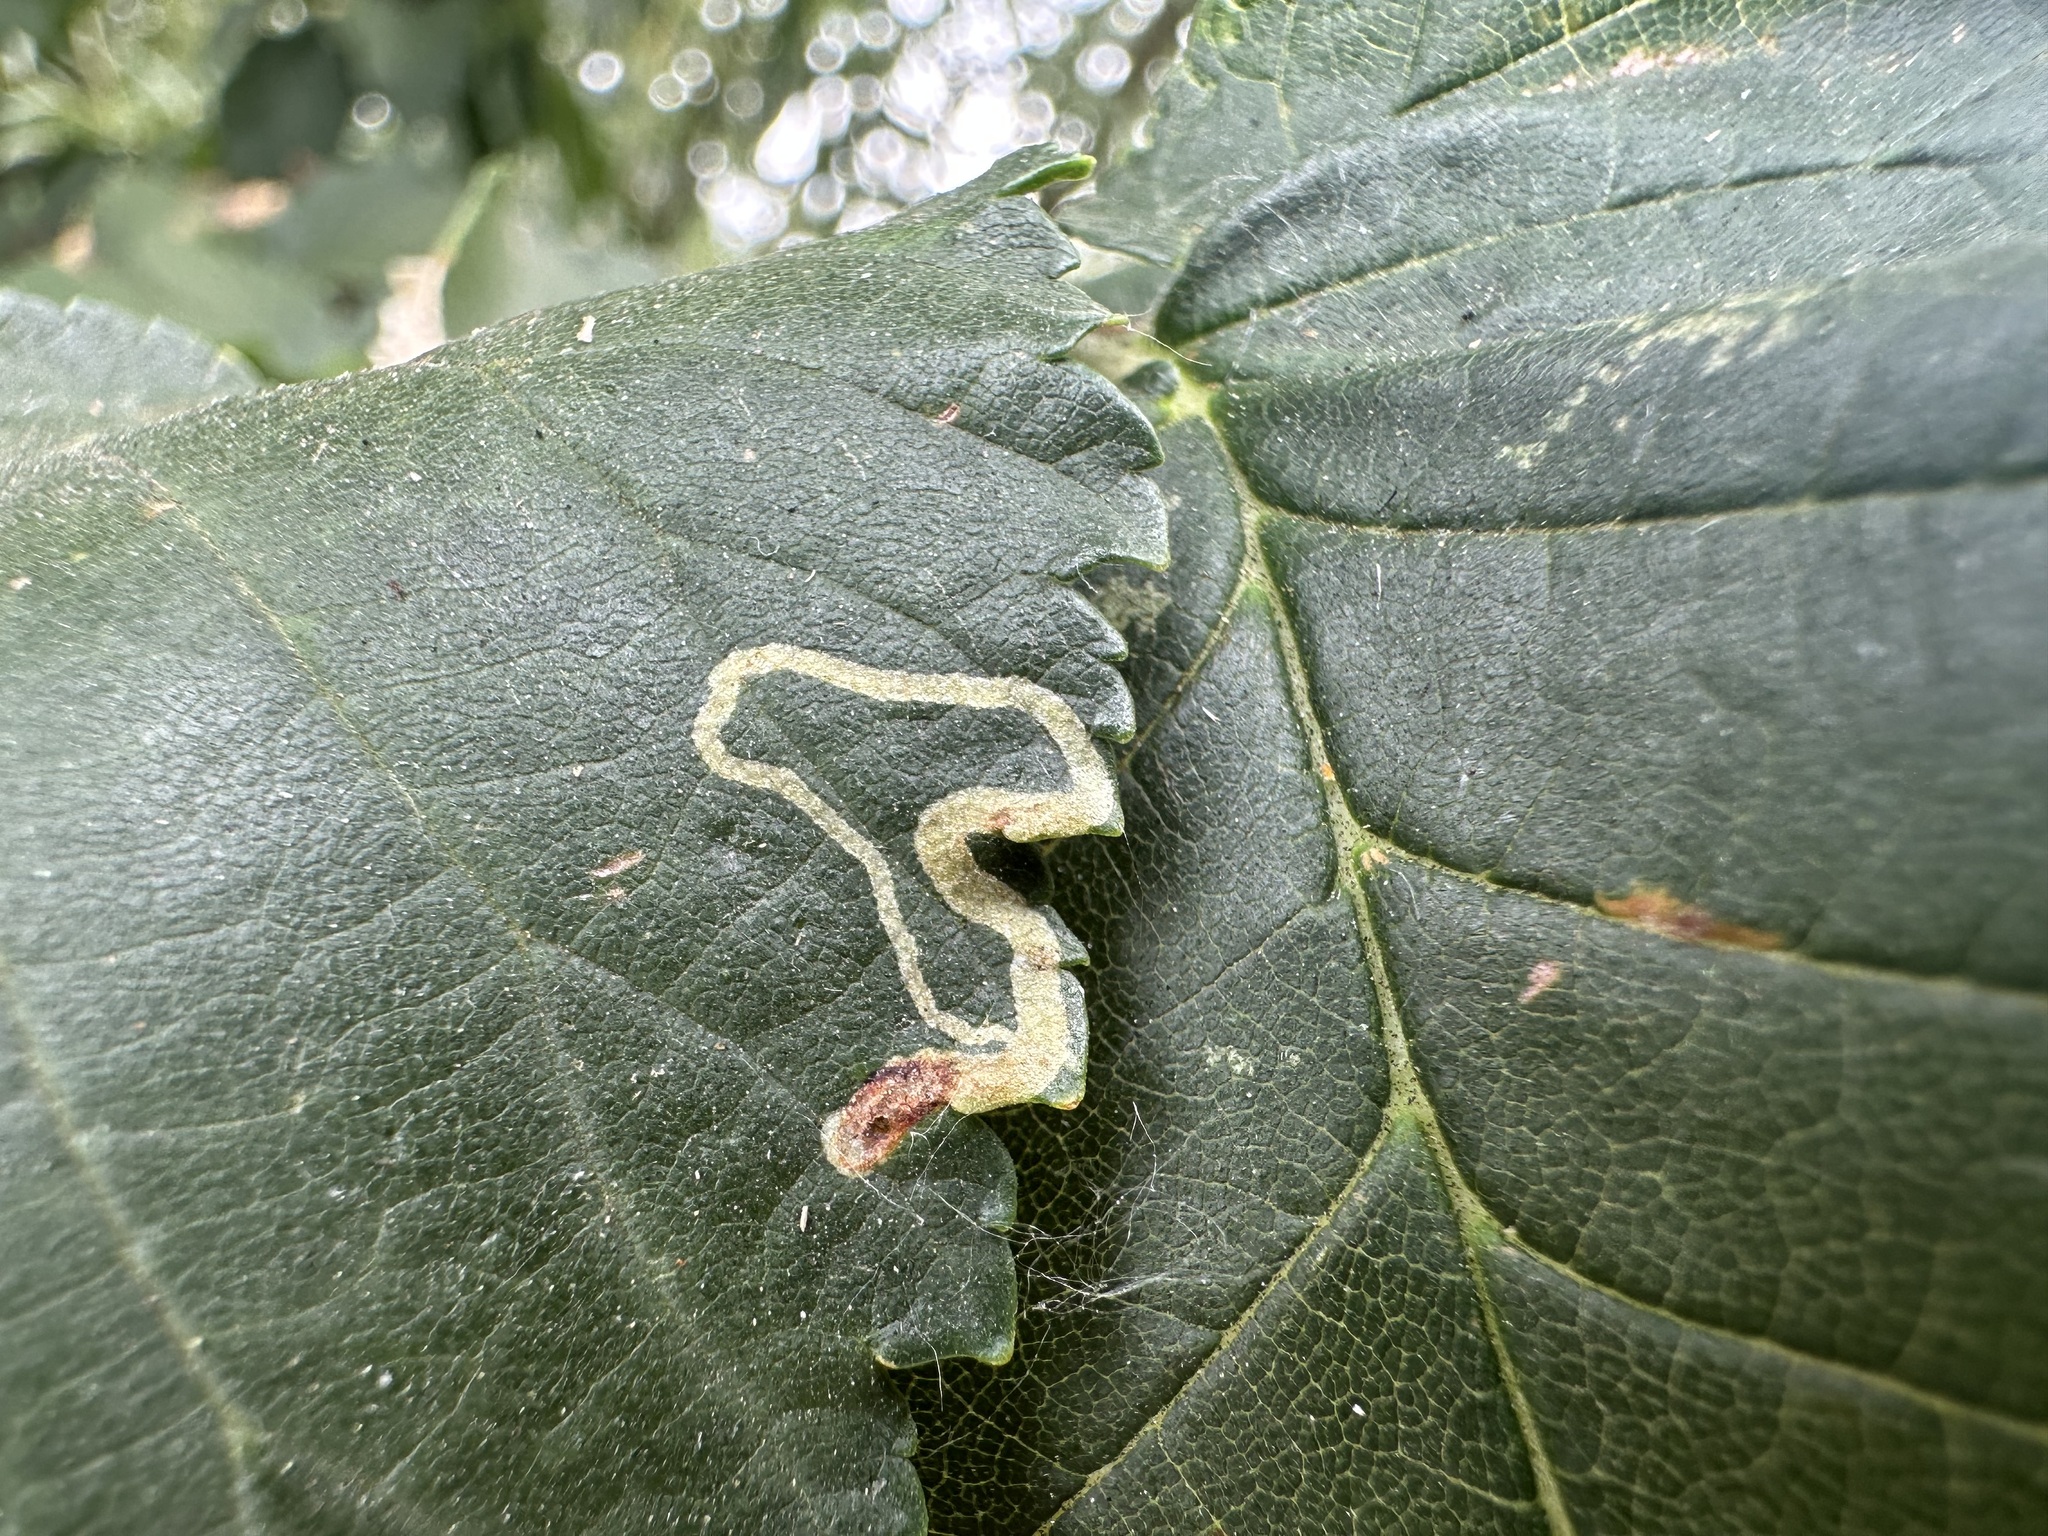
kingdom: Animalia
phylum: Arthropoda
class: Insecta
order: Diptera
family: Agromyzidae
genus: Agromyza
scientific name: Agromyza aristata
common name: Elm agromyzid leafminer
